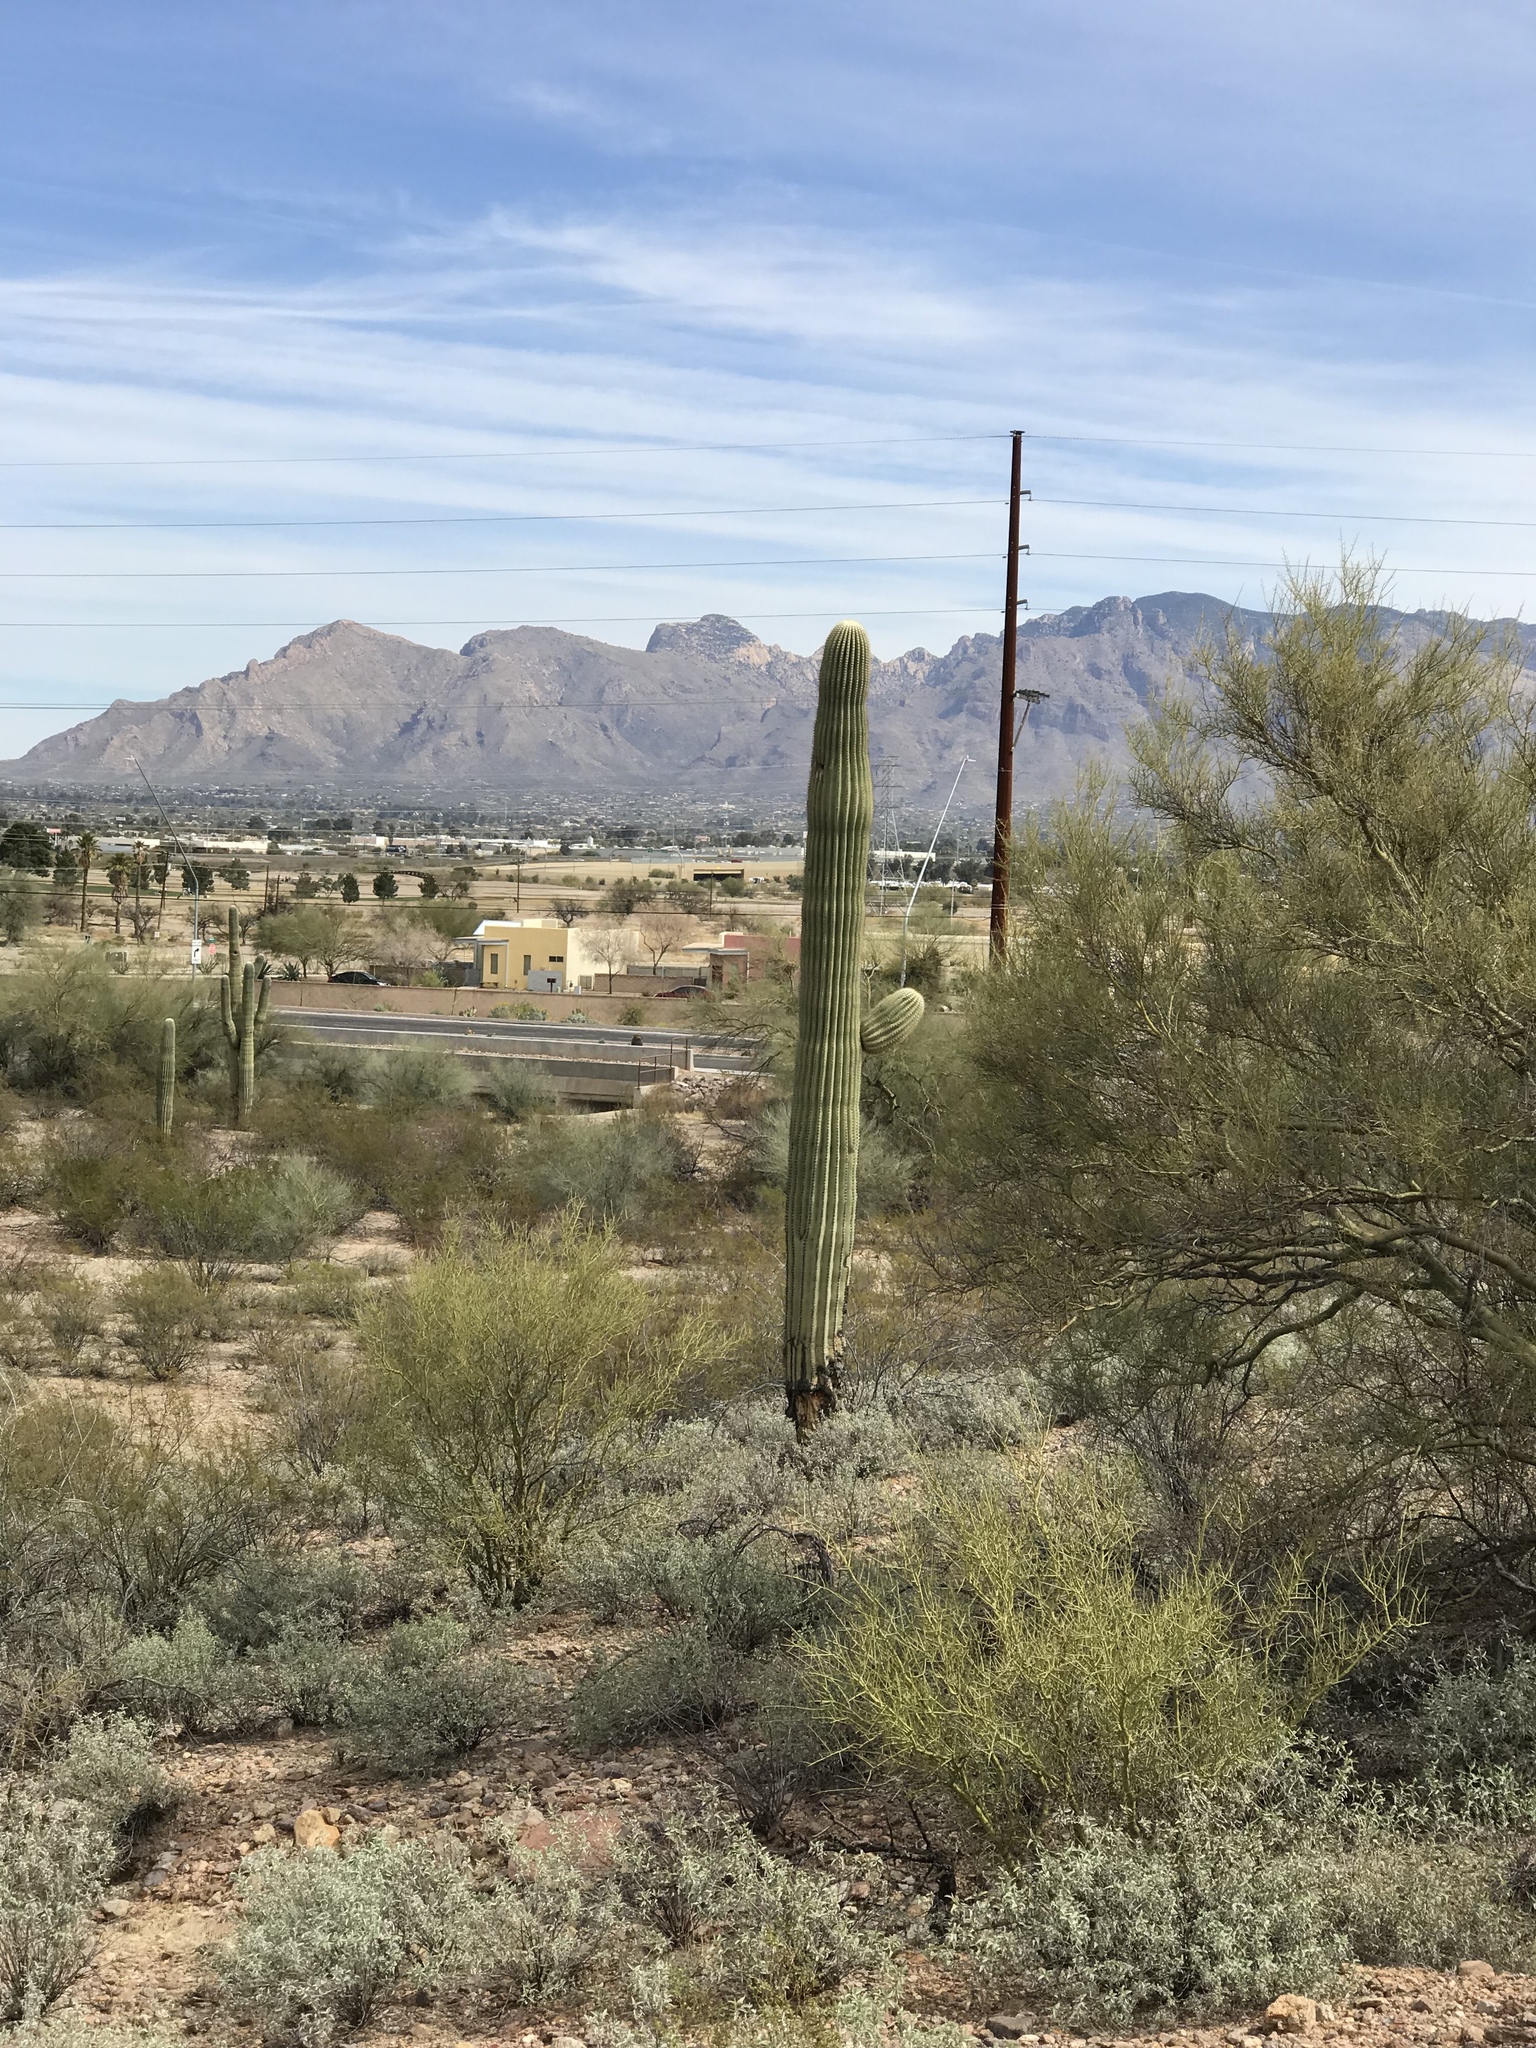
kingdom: Plantae
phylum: Tracheophyta
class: Magnoliopsida
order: Caryophyllales
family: Cactaceae
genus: Carnegiea
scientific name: Carnegiea gigantea
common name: Saguaro
